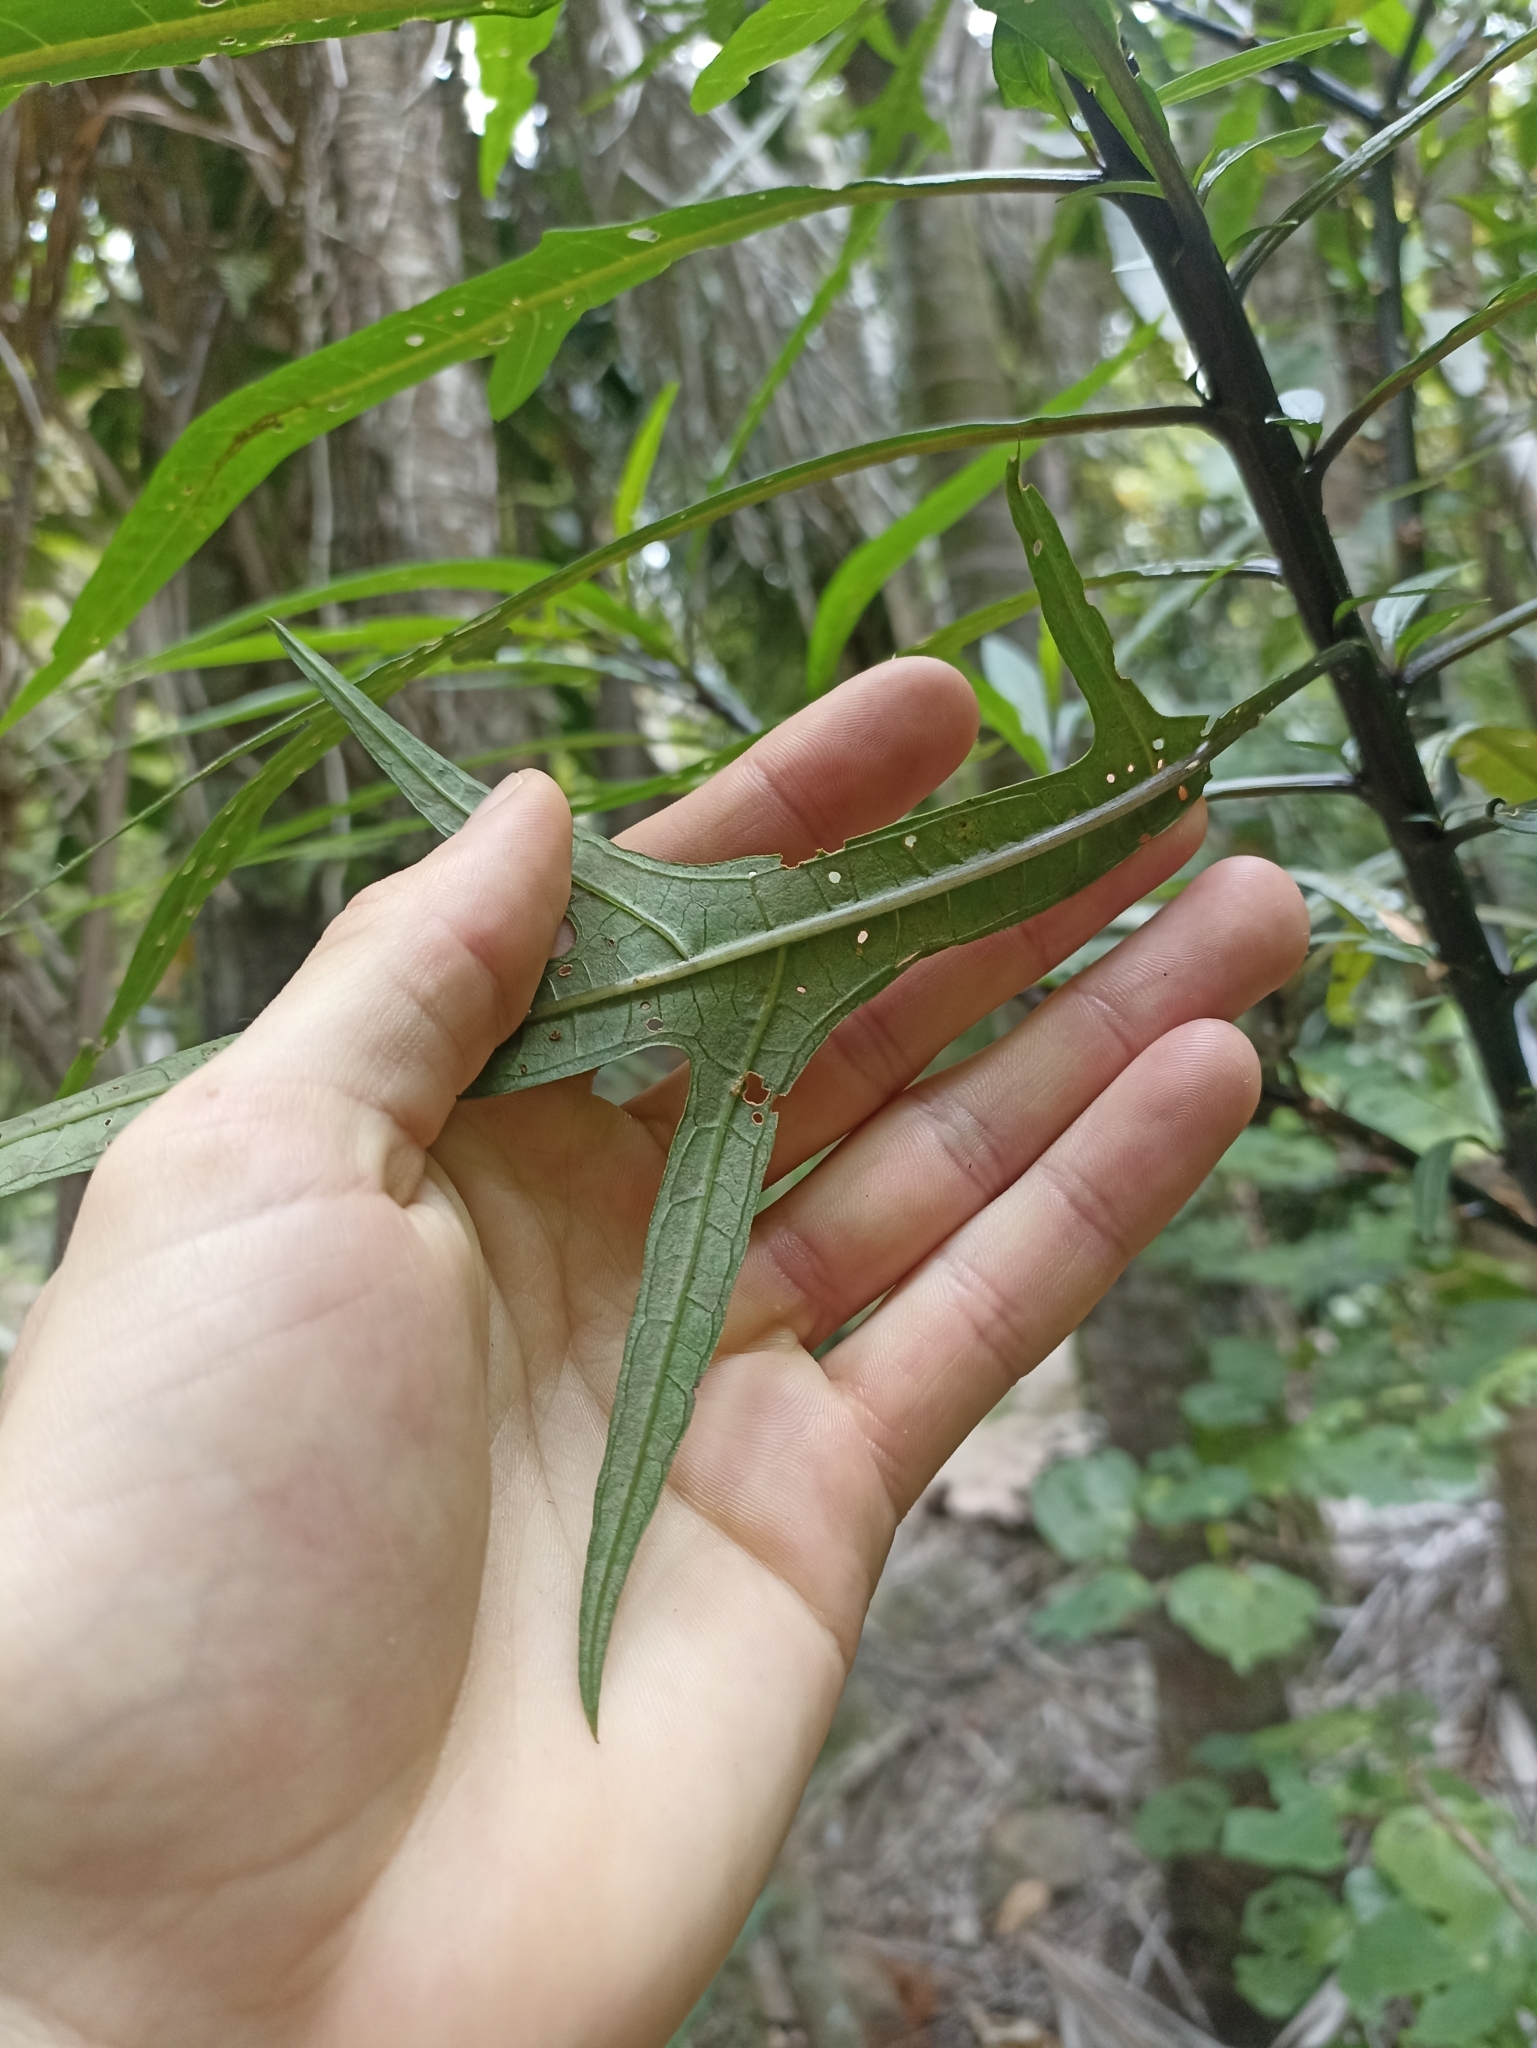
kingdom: Plantae
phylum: Tracheophyta
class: Magnoliopsida
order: Solanales
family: Solanaceae
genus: Solanum
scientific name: Solanum laciniatum
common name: Kangaroo-apple
